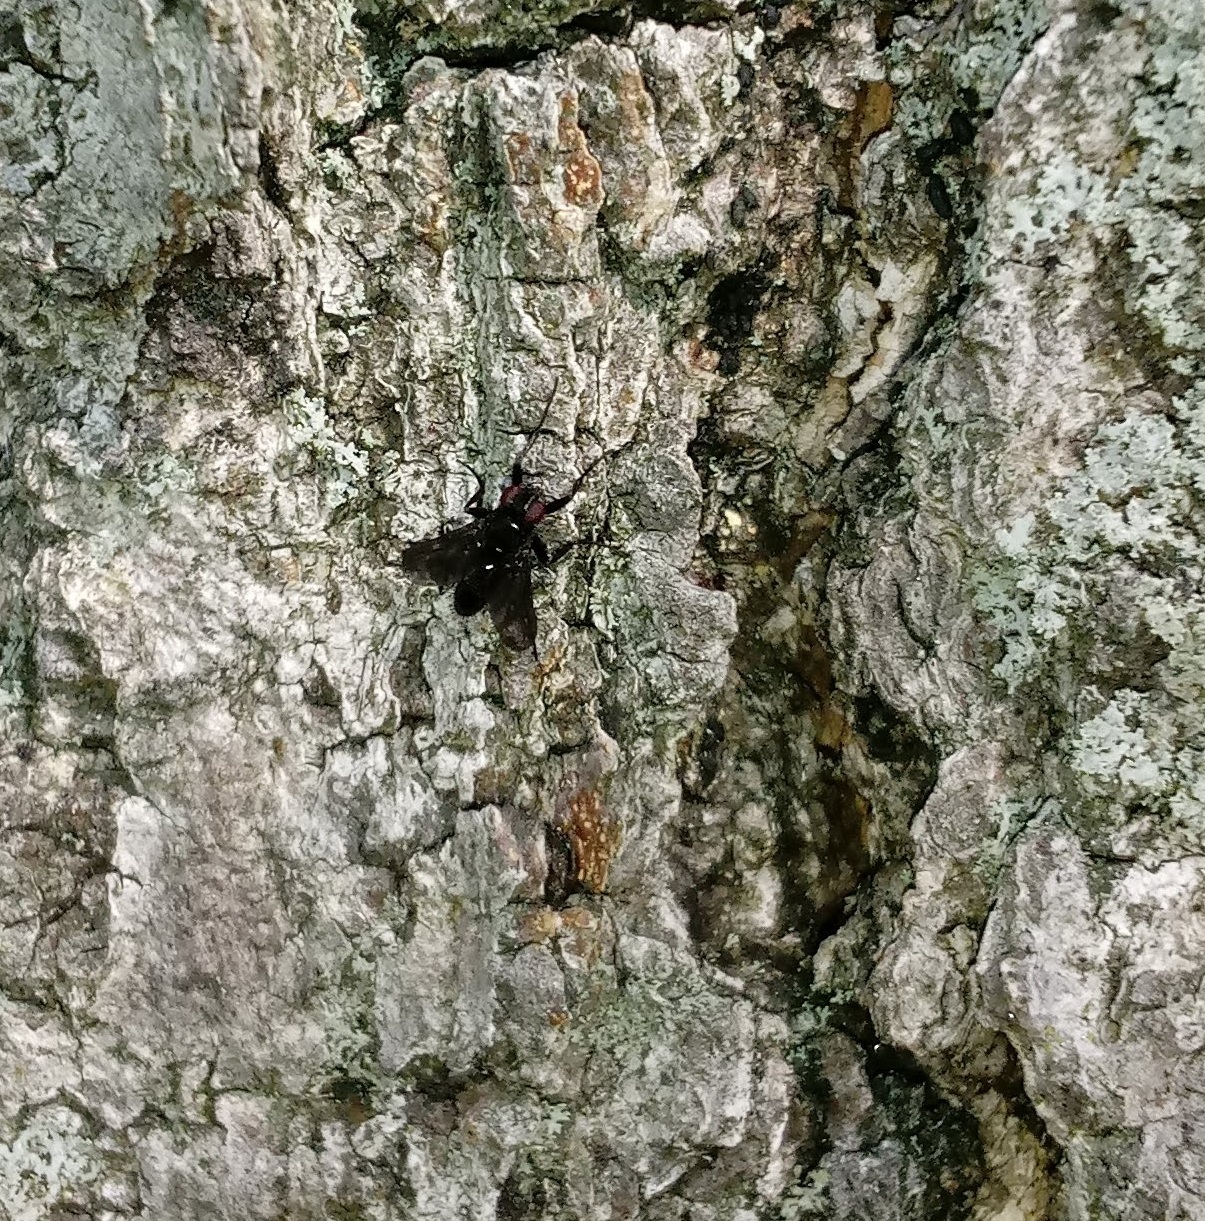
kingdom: Animalia
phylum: Arthropoda
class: Insecta
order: Diptera
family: Calliphoridae
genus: Melanophora
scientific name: Melanophora roralis
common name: Smoky-winged woodlouse-fly
